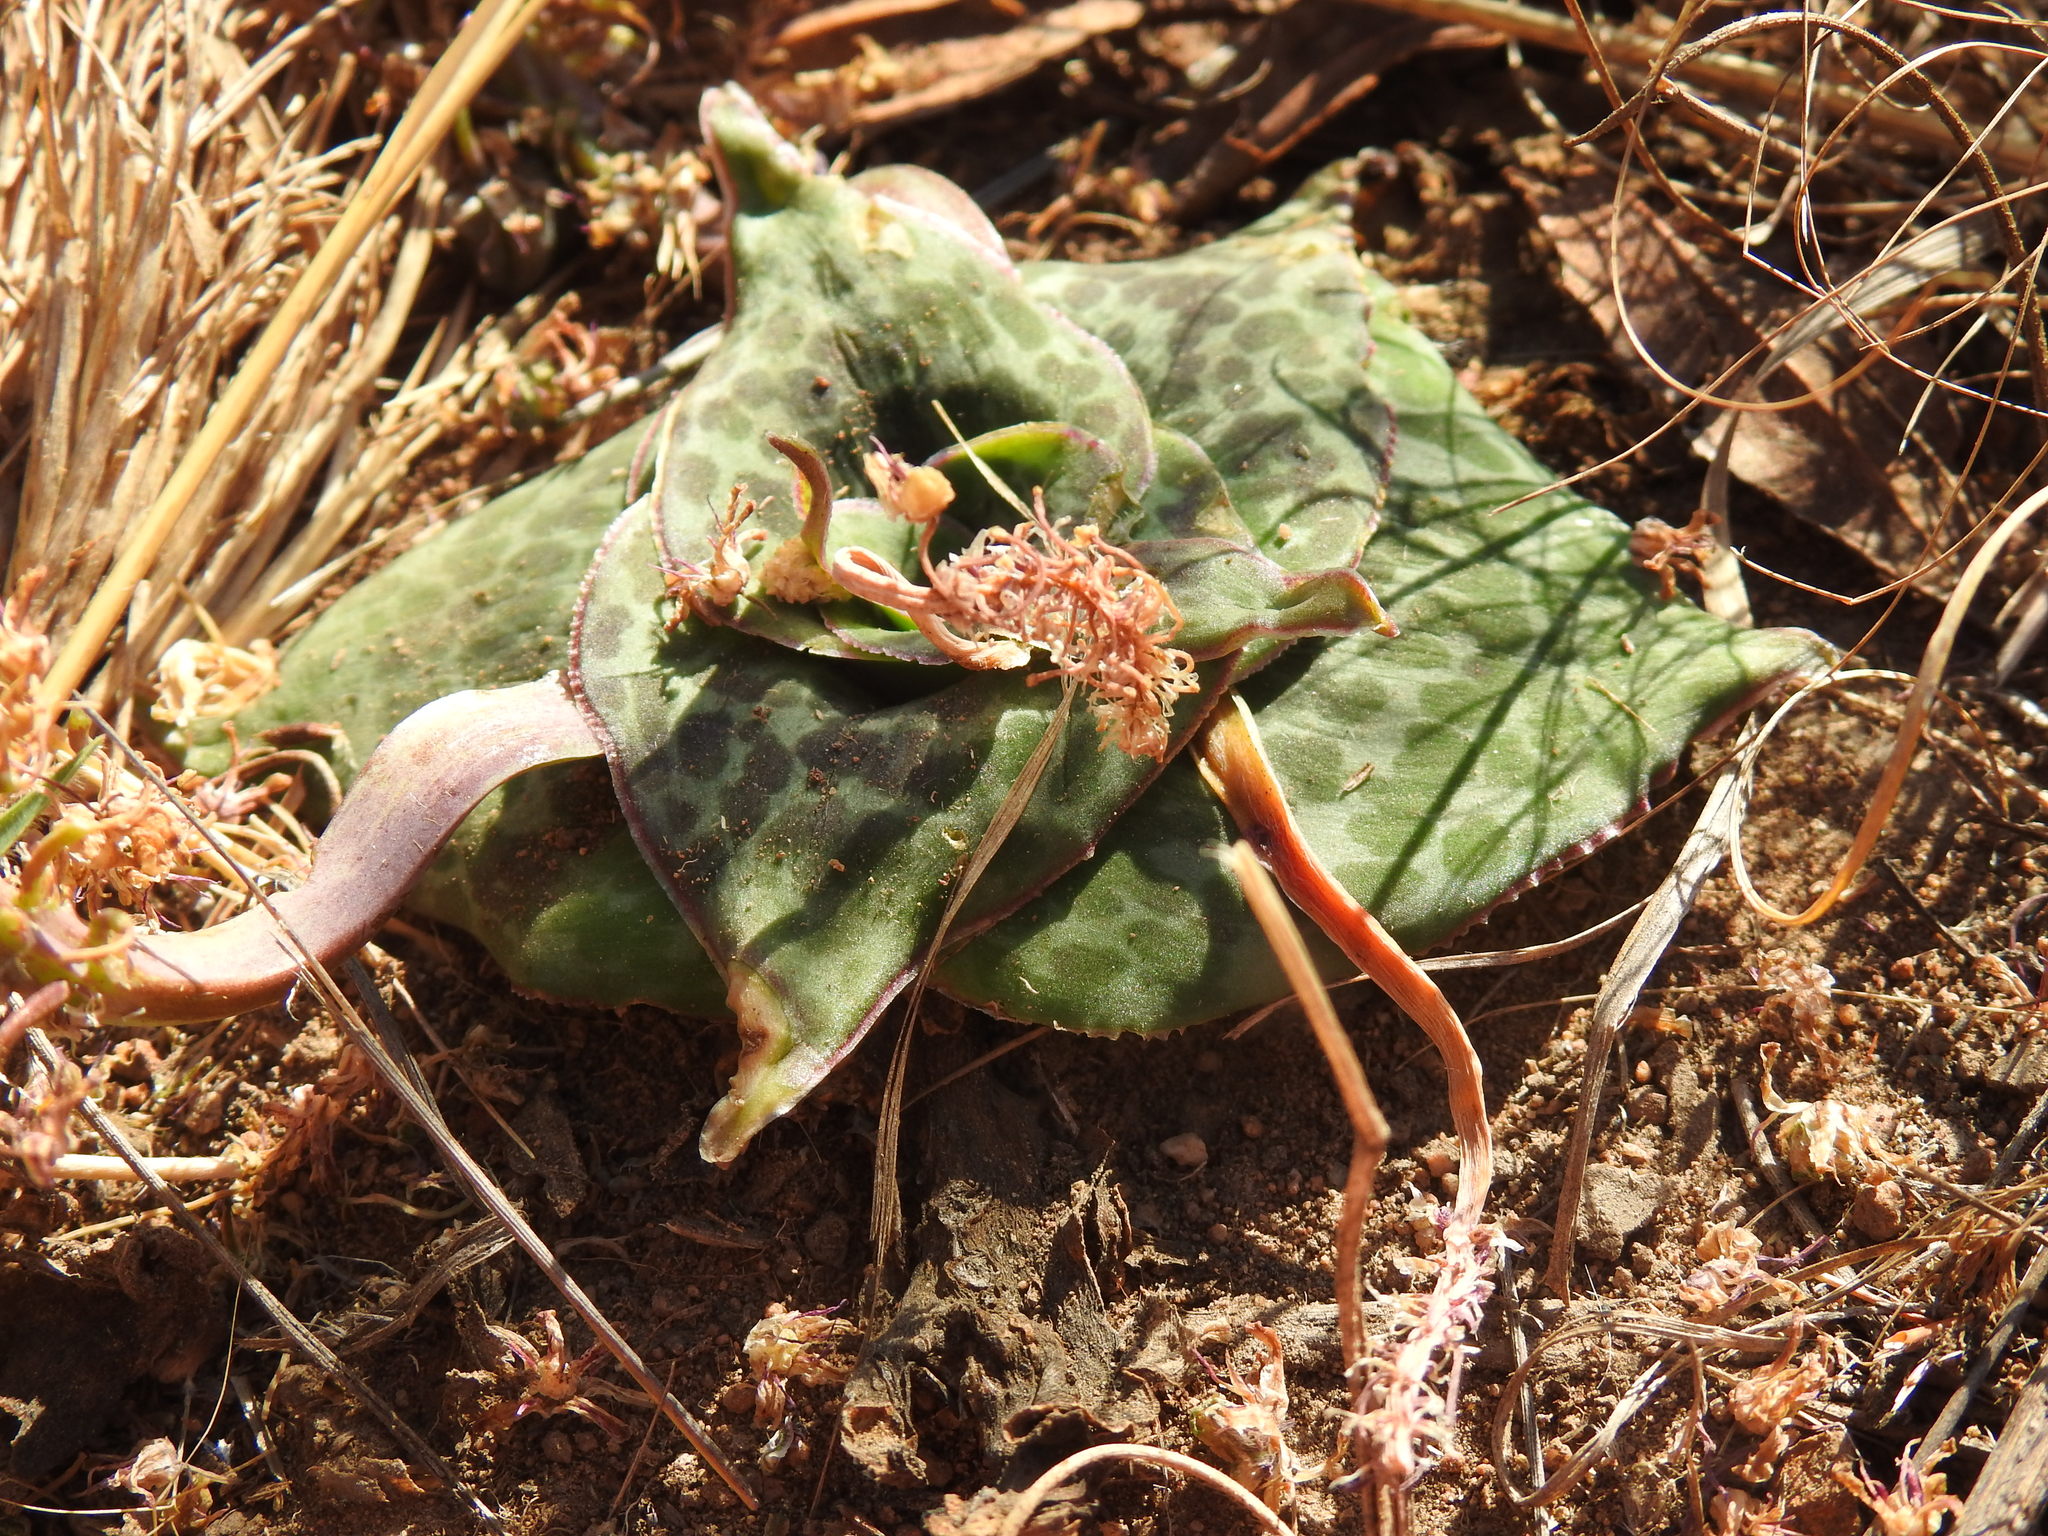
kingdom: Plantae
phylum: Tracheophyta
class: Liliopsida
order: Asparagales
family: Asparagaceae
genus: Ledebouria
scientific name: Ledebouria ovatifolia
